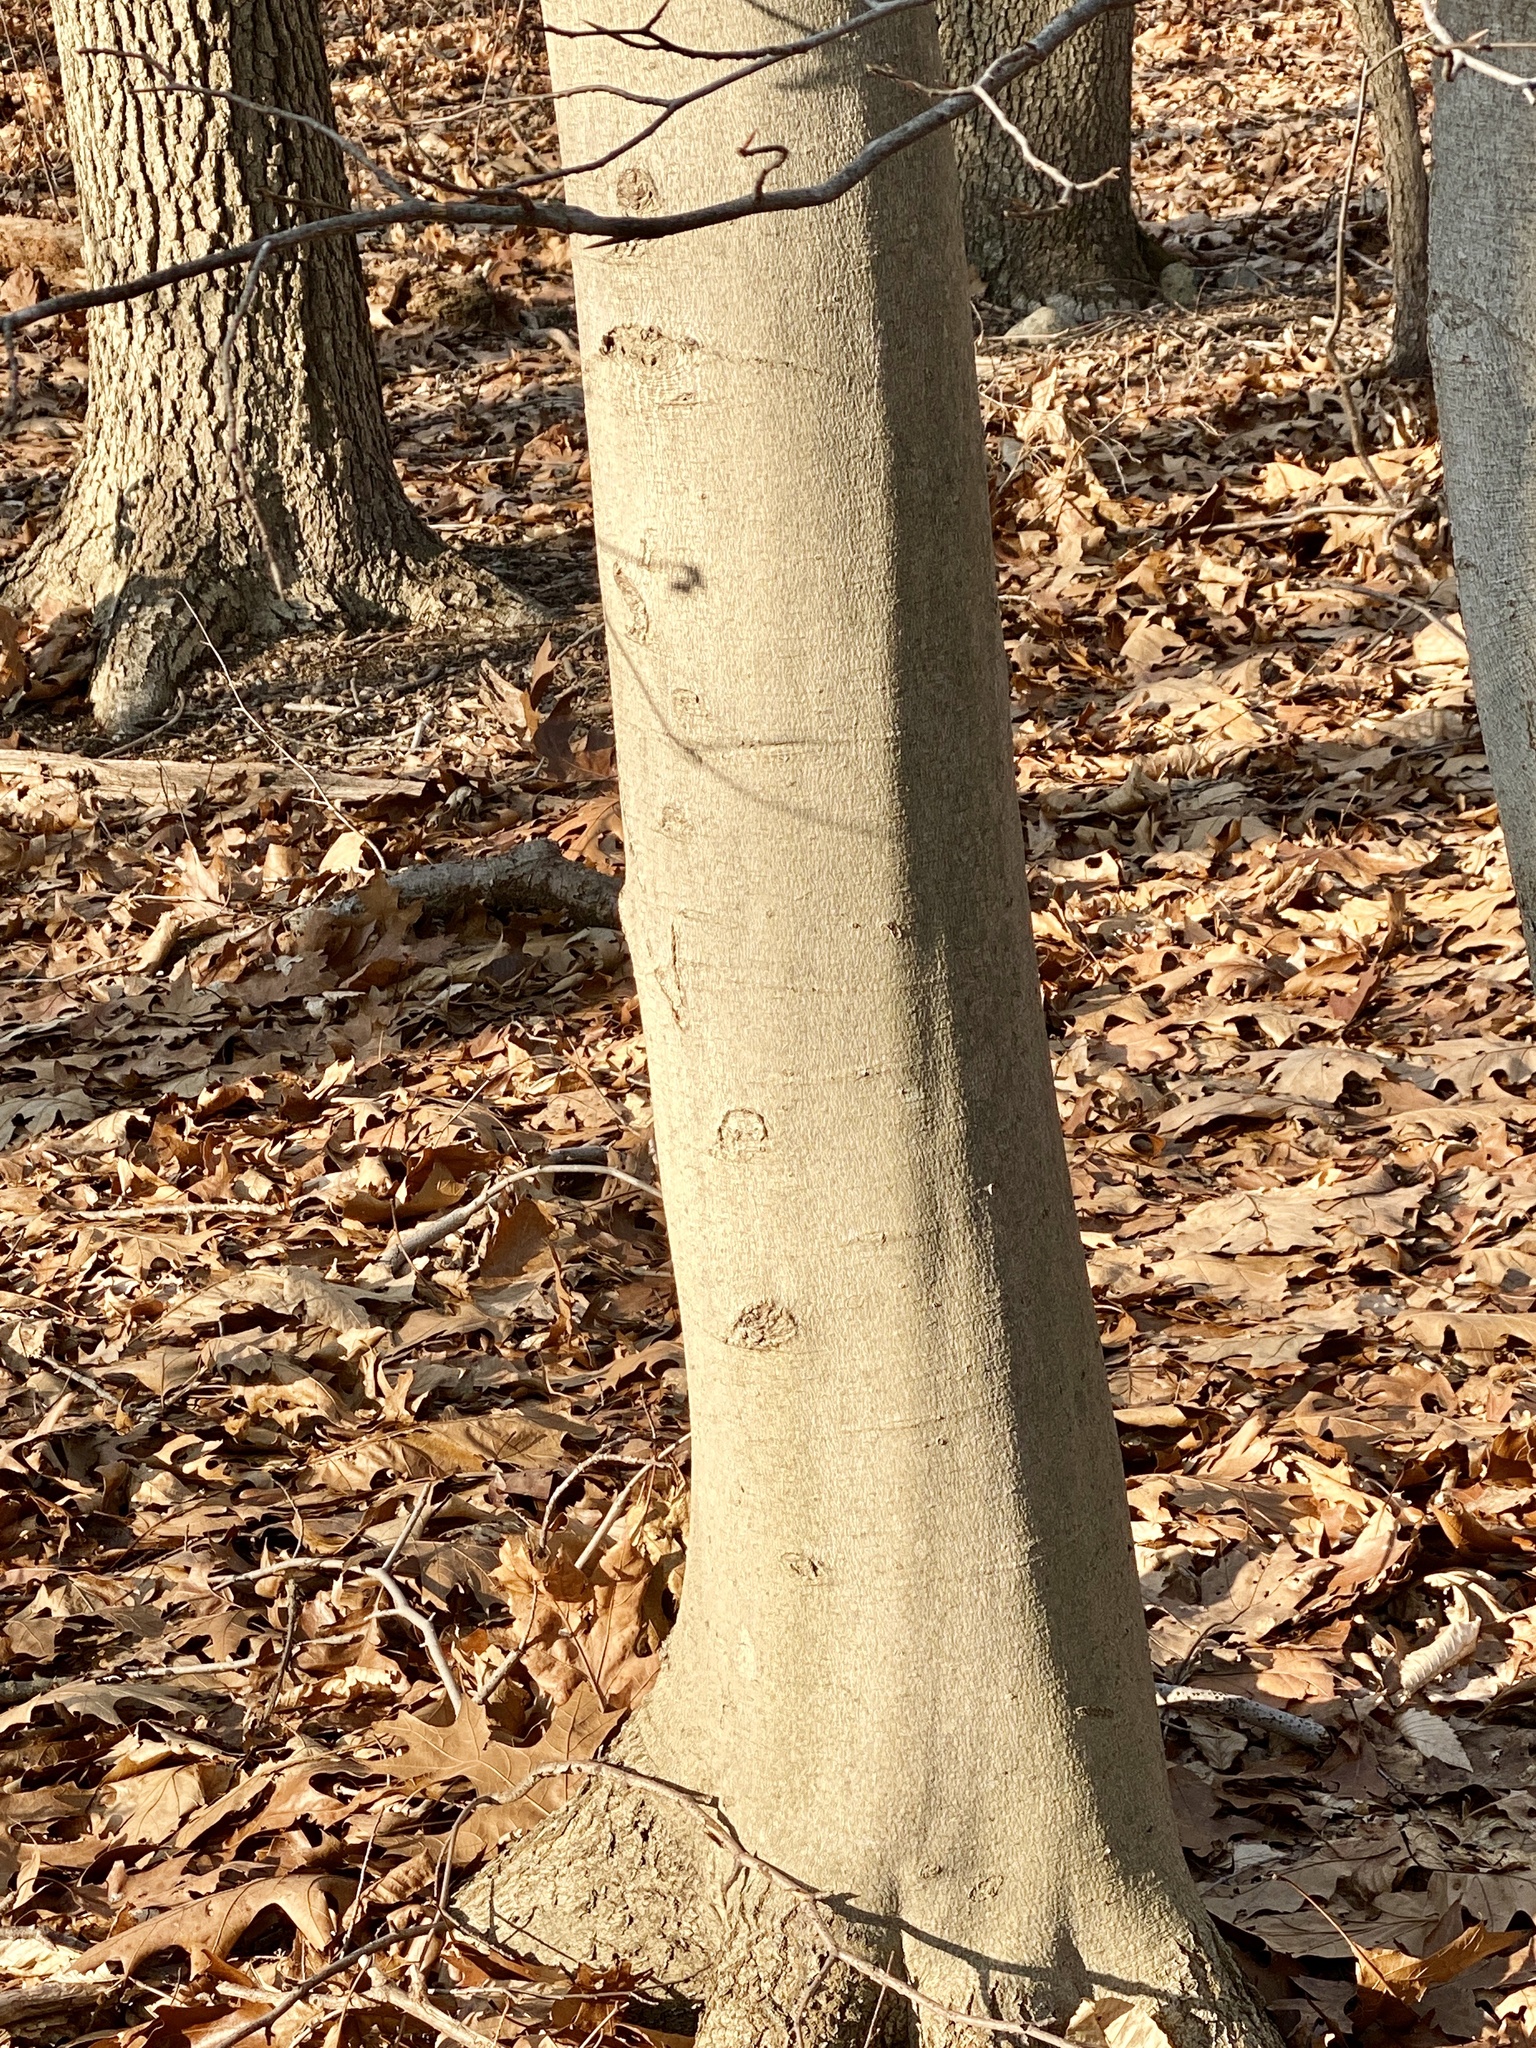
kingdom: Plantae
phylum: Tracheophyta
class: Magnoliopsida
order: Fagales
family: Fagaceae
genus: Fagus
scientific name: Fagus grandifolia
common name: American beech
